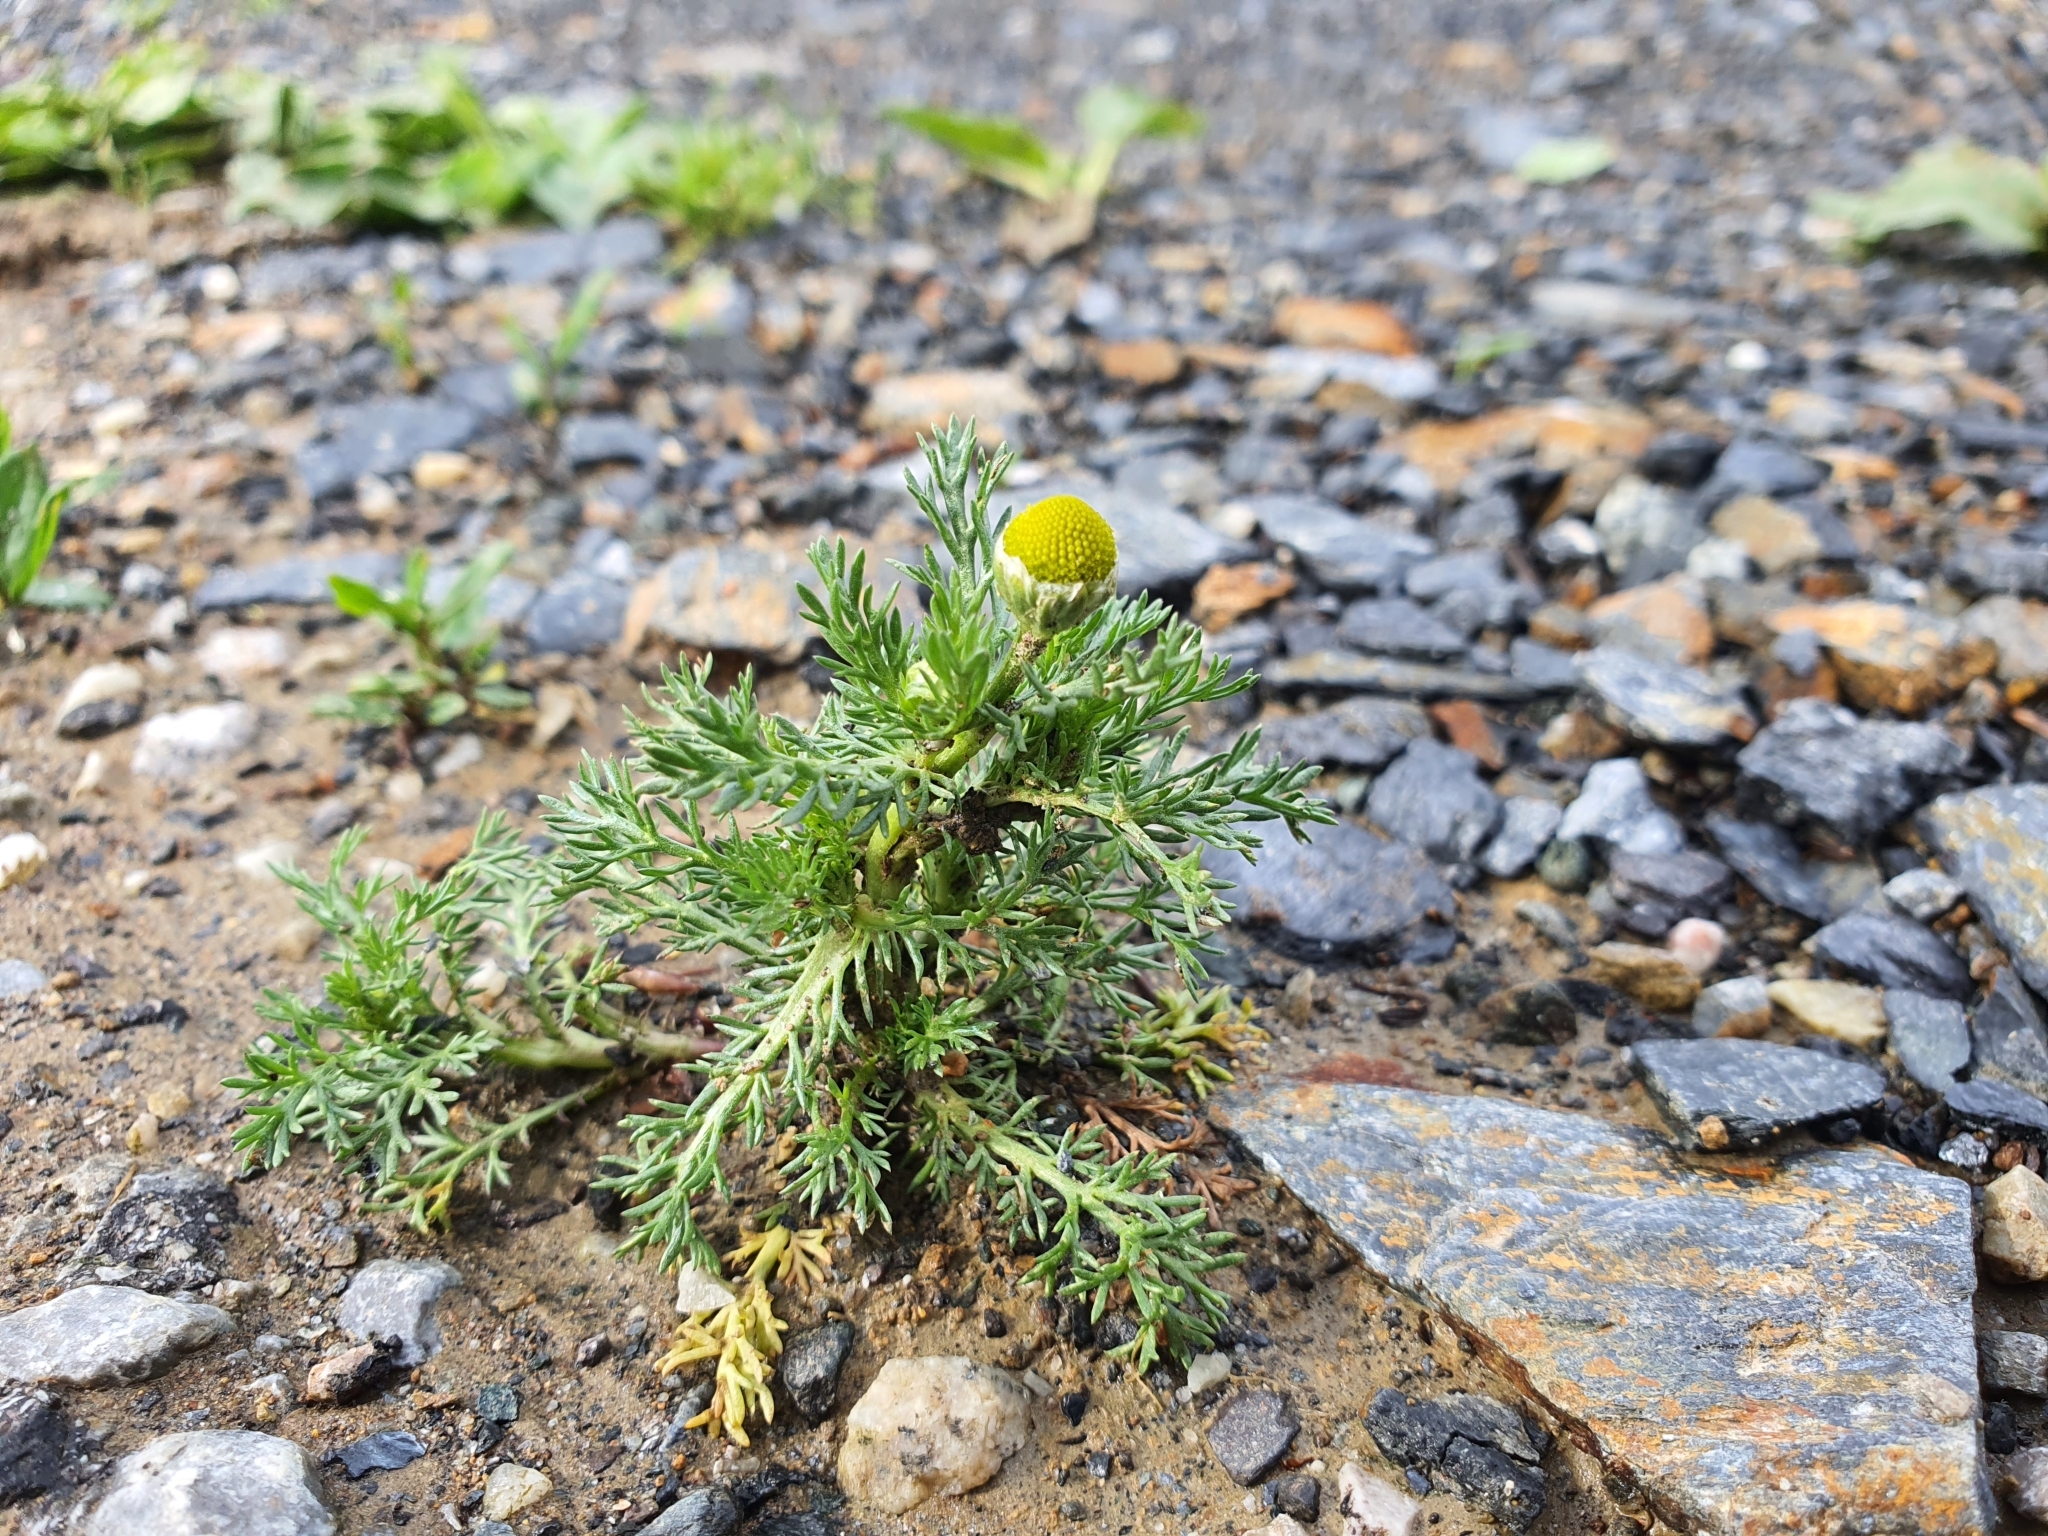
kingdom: Plantae
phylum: Tracheophyta
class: Magnoliopsida
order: Asterales
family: Asteraceae
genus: Matricaria
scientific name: Matricaria discoidea
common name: Disc mayweed
